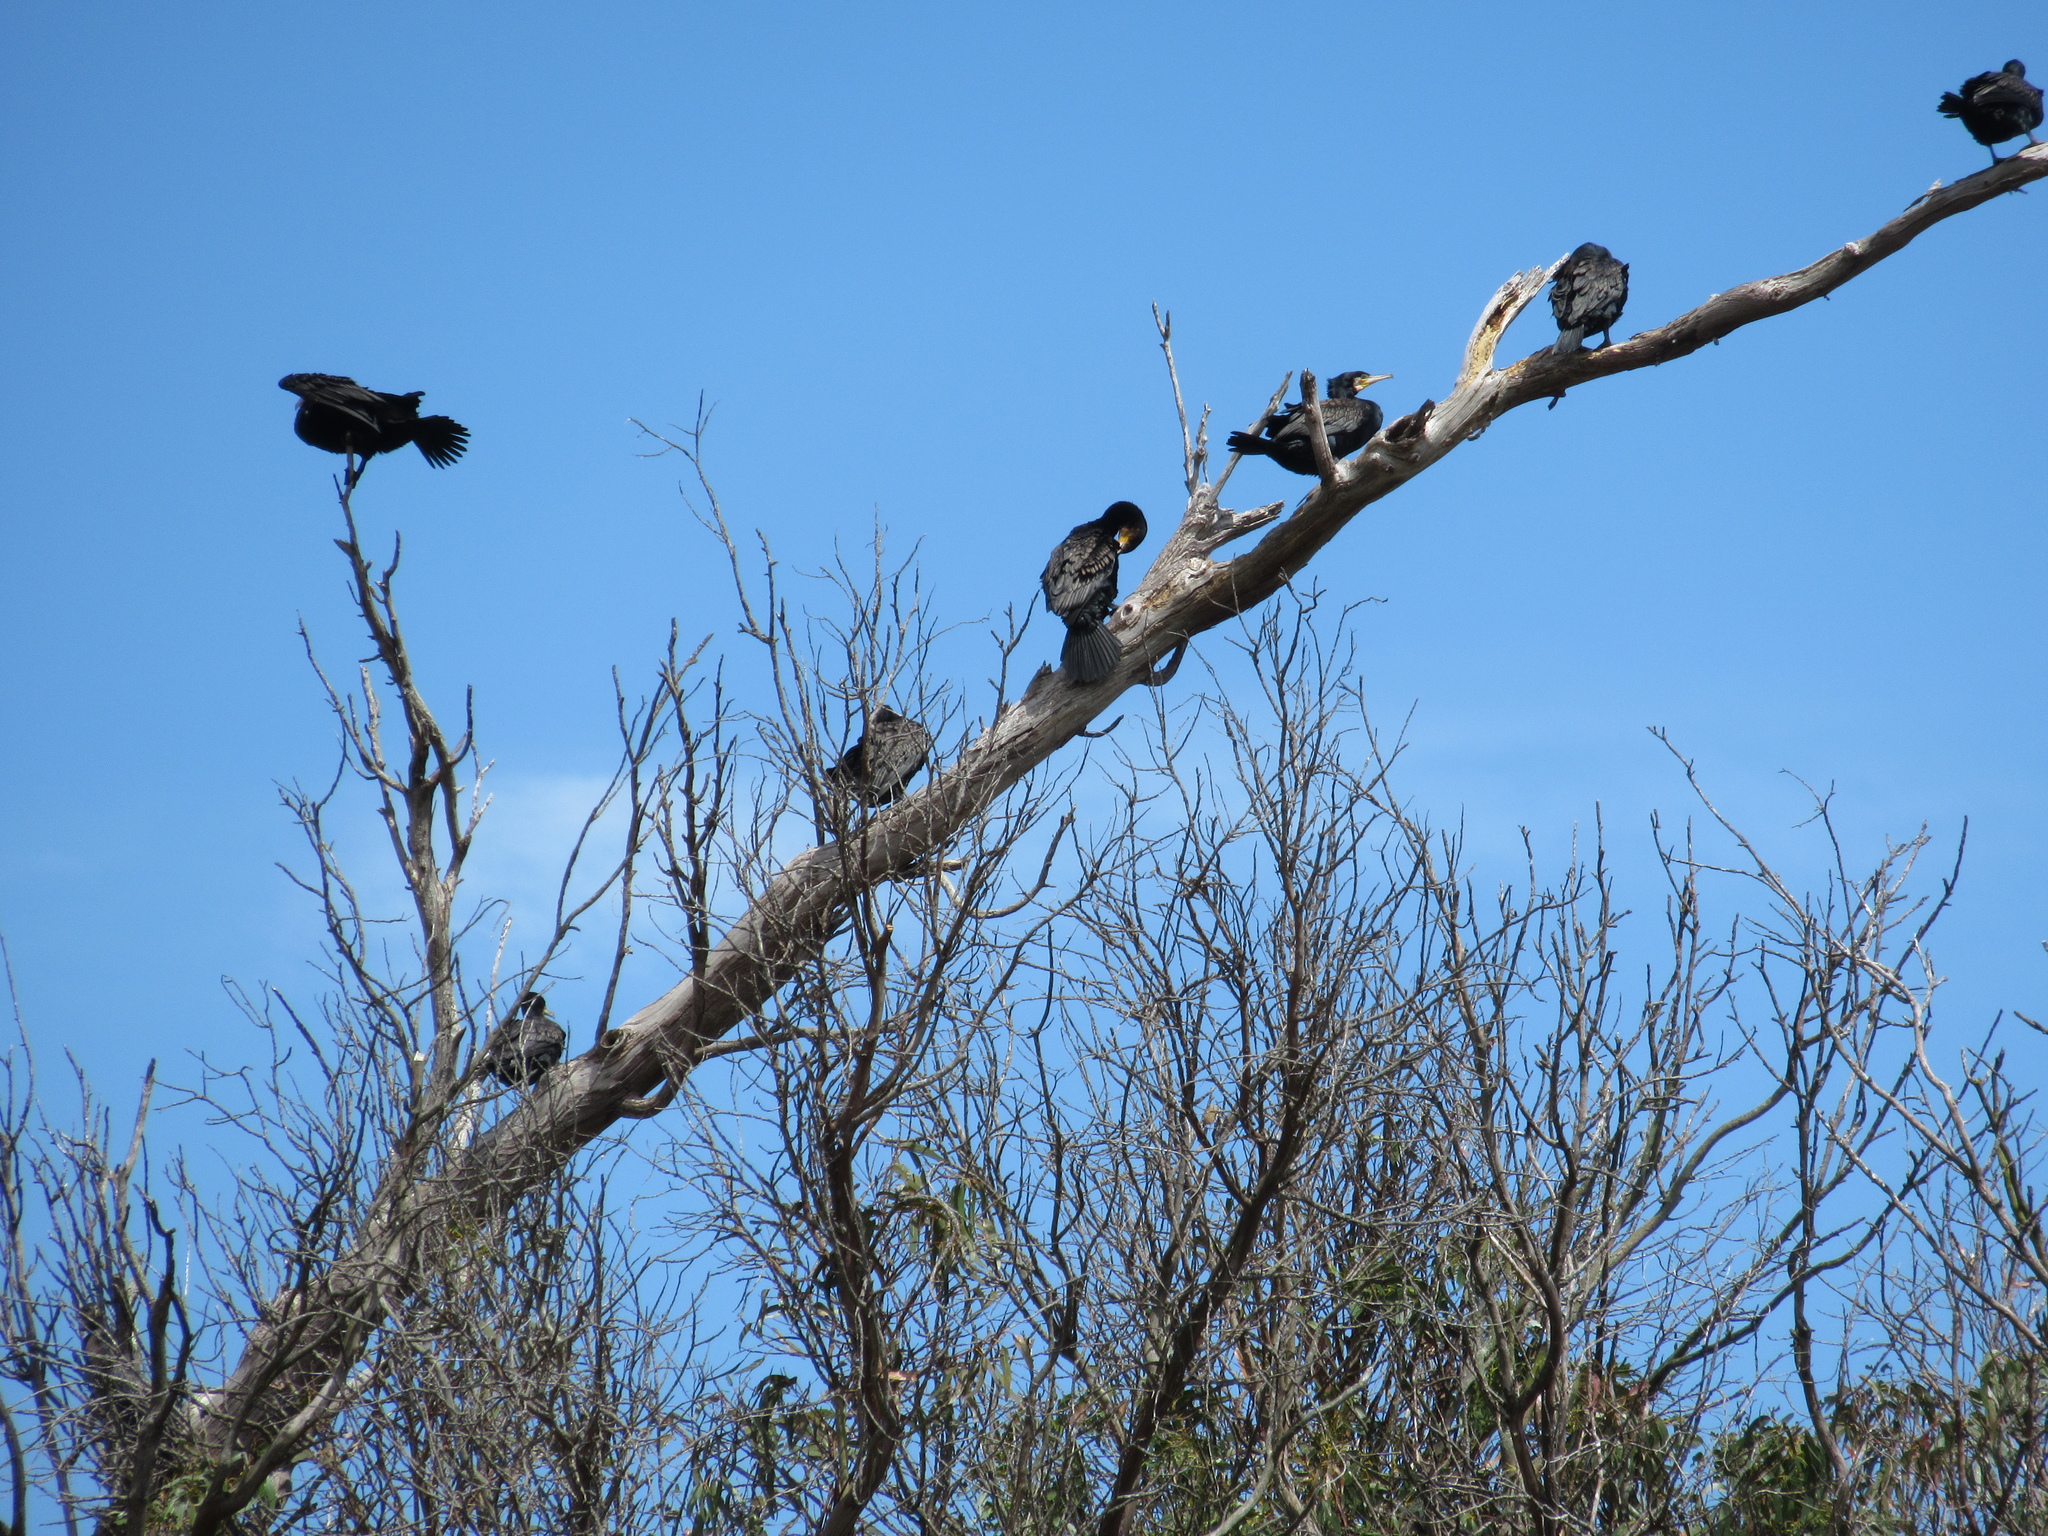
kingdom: Animalia
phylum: Chordata
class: Aves
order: Suliformes
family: Phalacrocoracidae
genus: Phalacrocorax
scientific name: Phalacrocorax carbo
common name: Great cormorant
